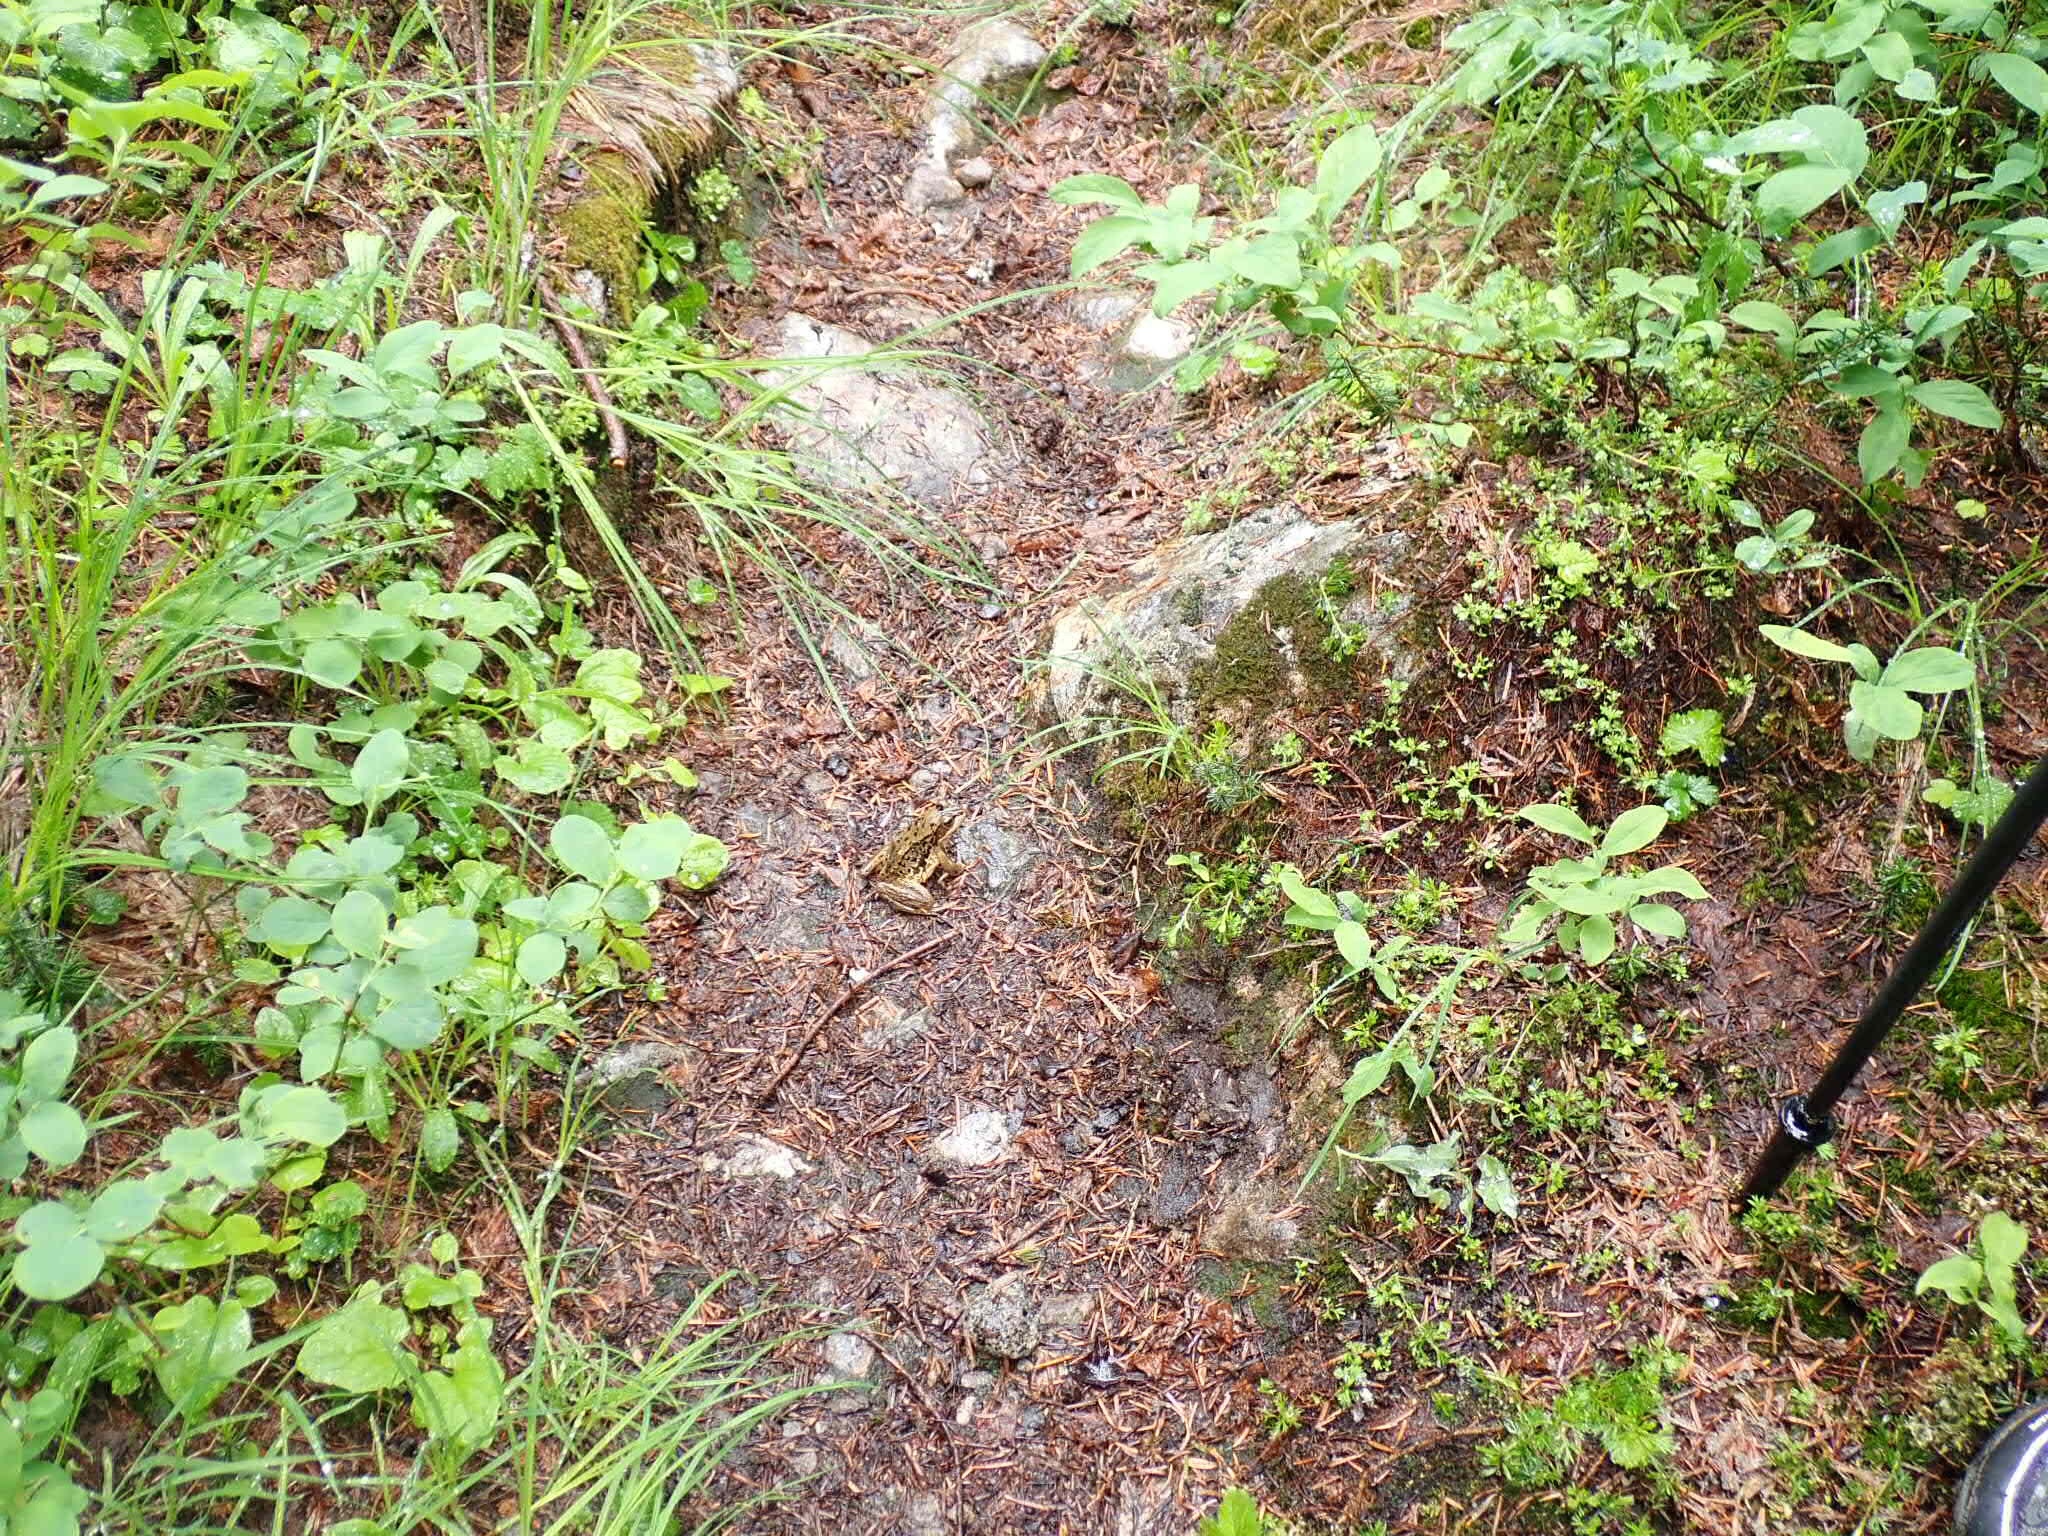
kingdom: Animalia
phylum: Chordata
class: Amphibia
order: Anura
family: Ranidae
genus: Rana
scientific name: Rana cascadae
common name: Cascades frog
